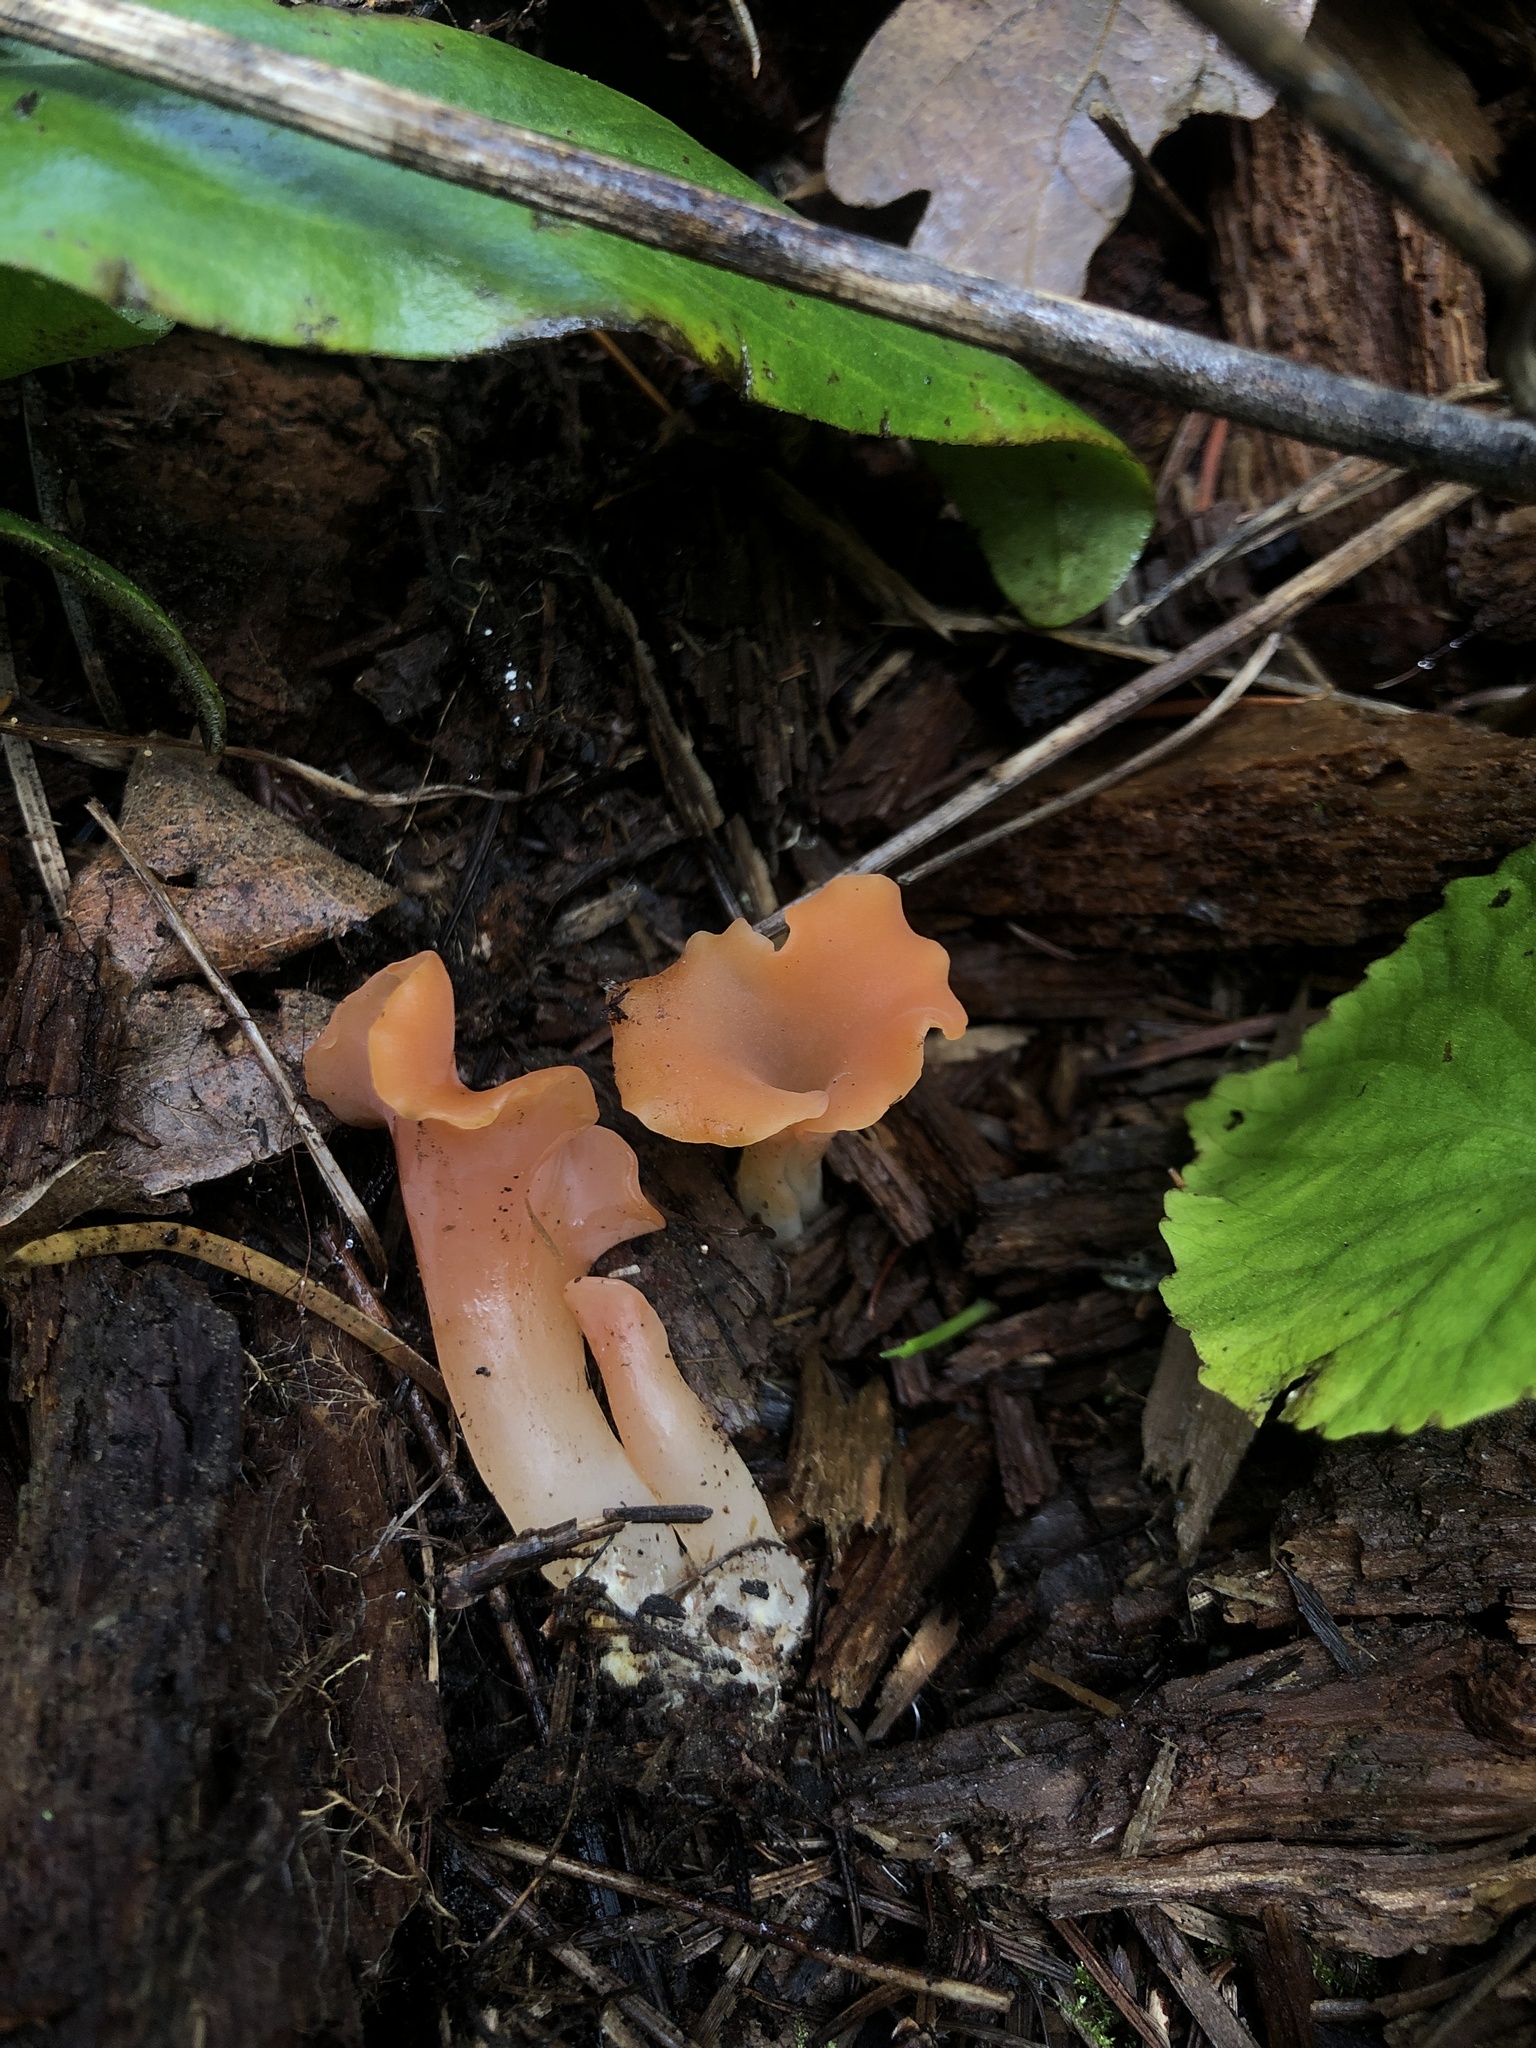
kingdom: Fungi
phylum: Basidiomycota
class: Agaricomycetes
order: Auriculariales
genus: Guepinia
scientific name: Guepinia helvelloides
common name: Salmon salad
